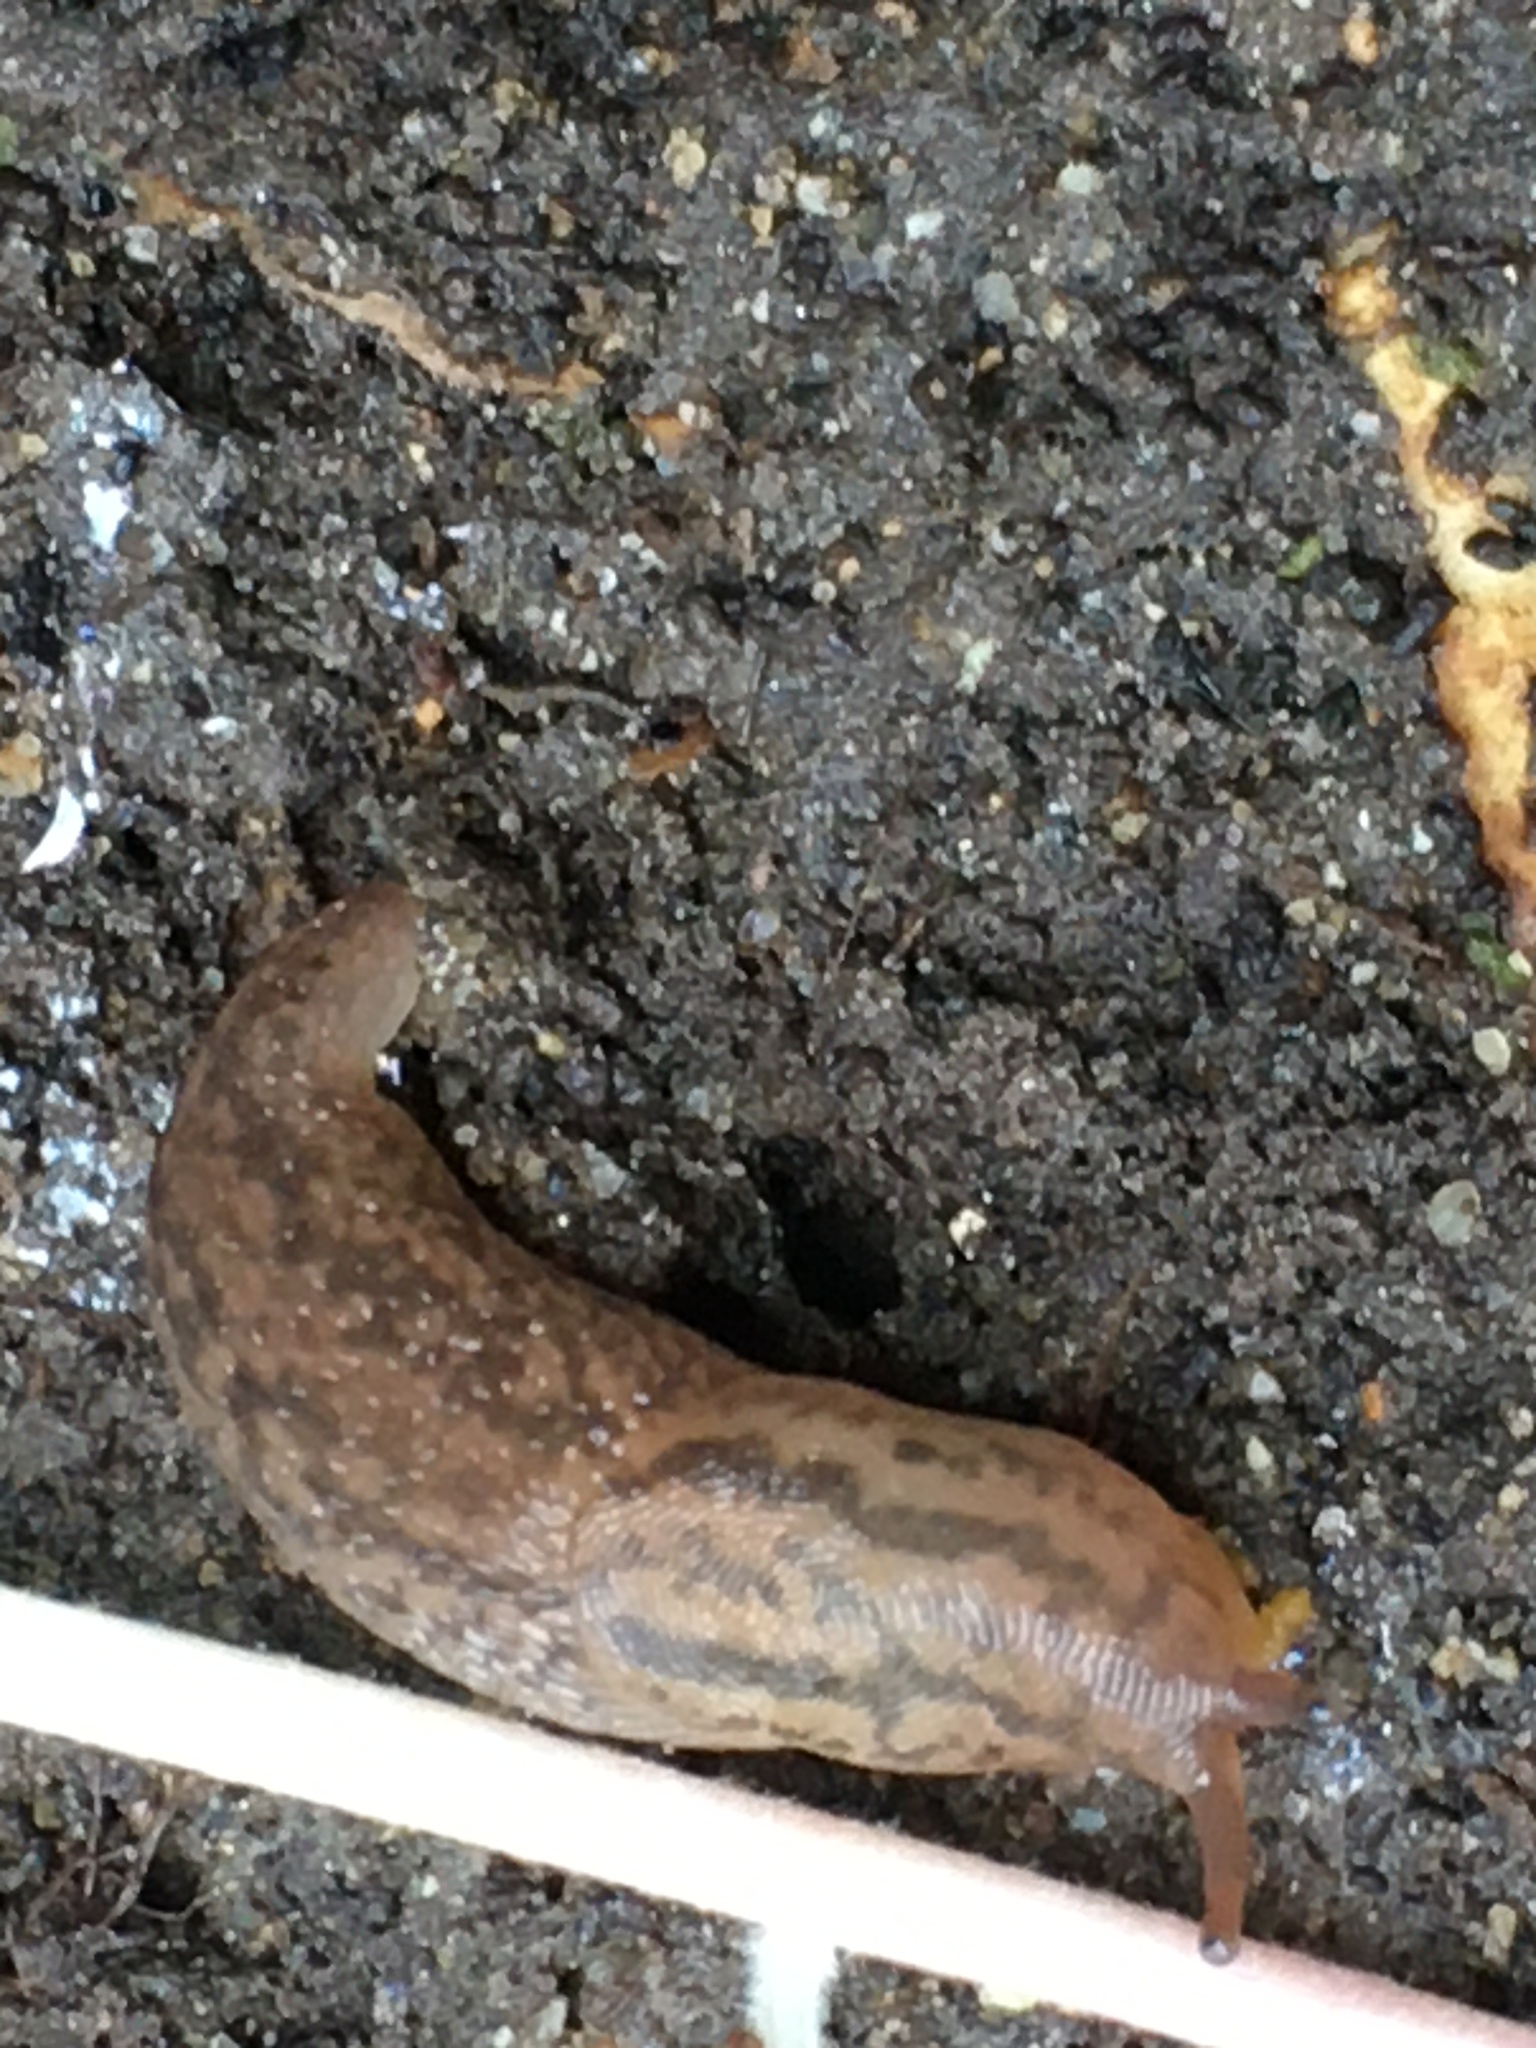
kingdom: Animalia
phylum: Mollusca
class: Gastropoda
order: Stylommatophora
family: Limacidae
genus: Ambigolimax
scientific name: Ambigolimax
